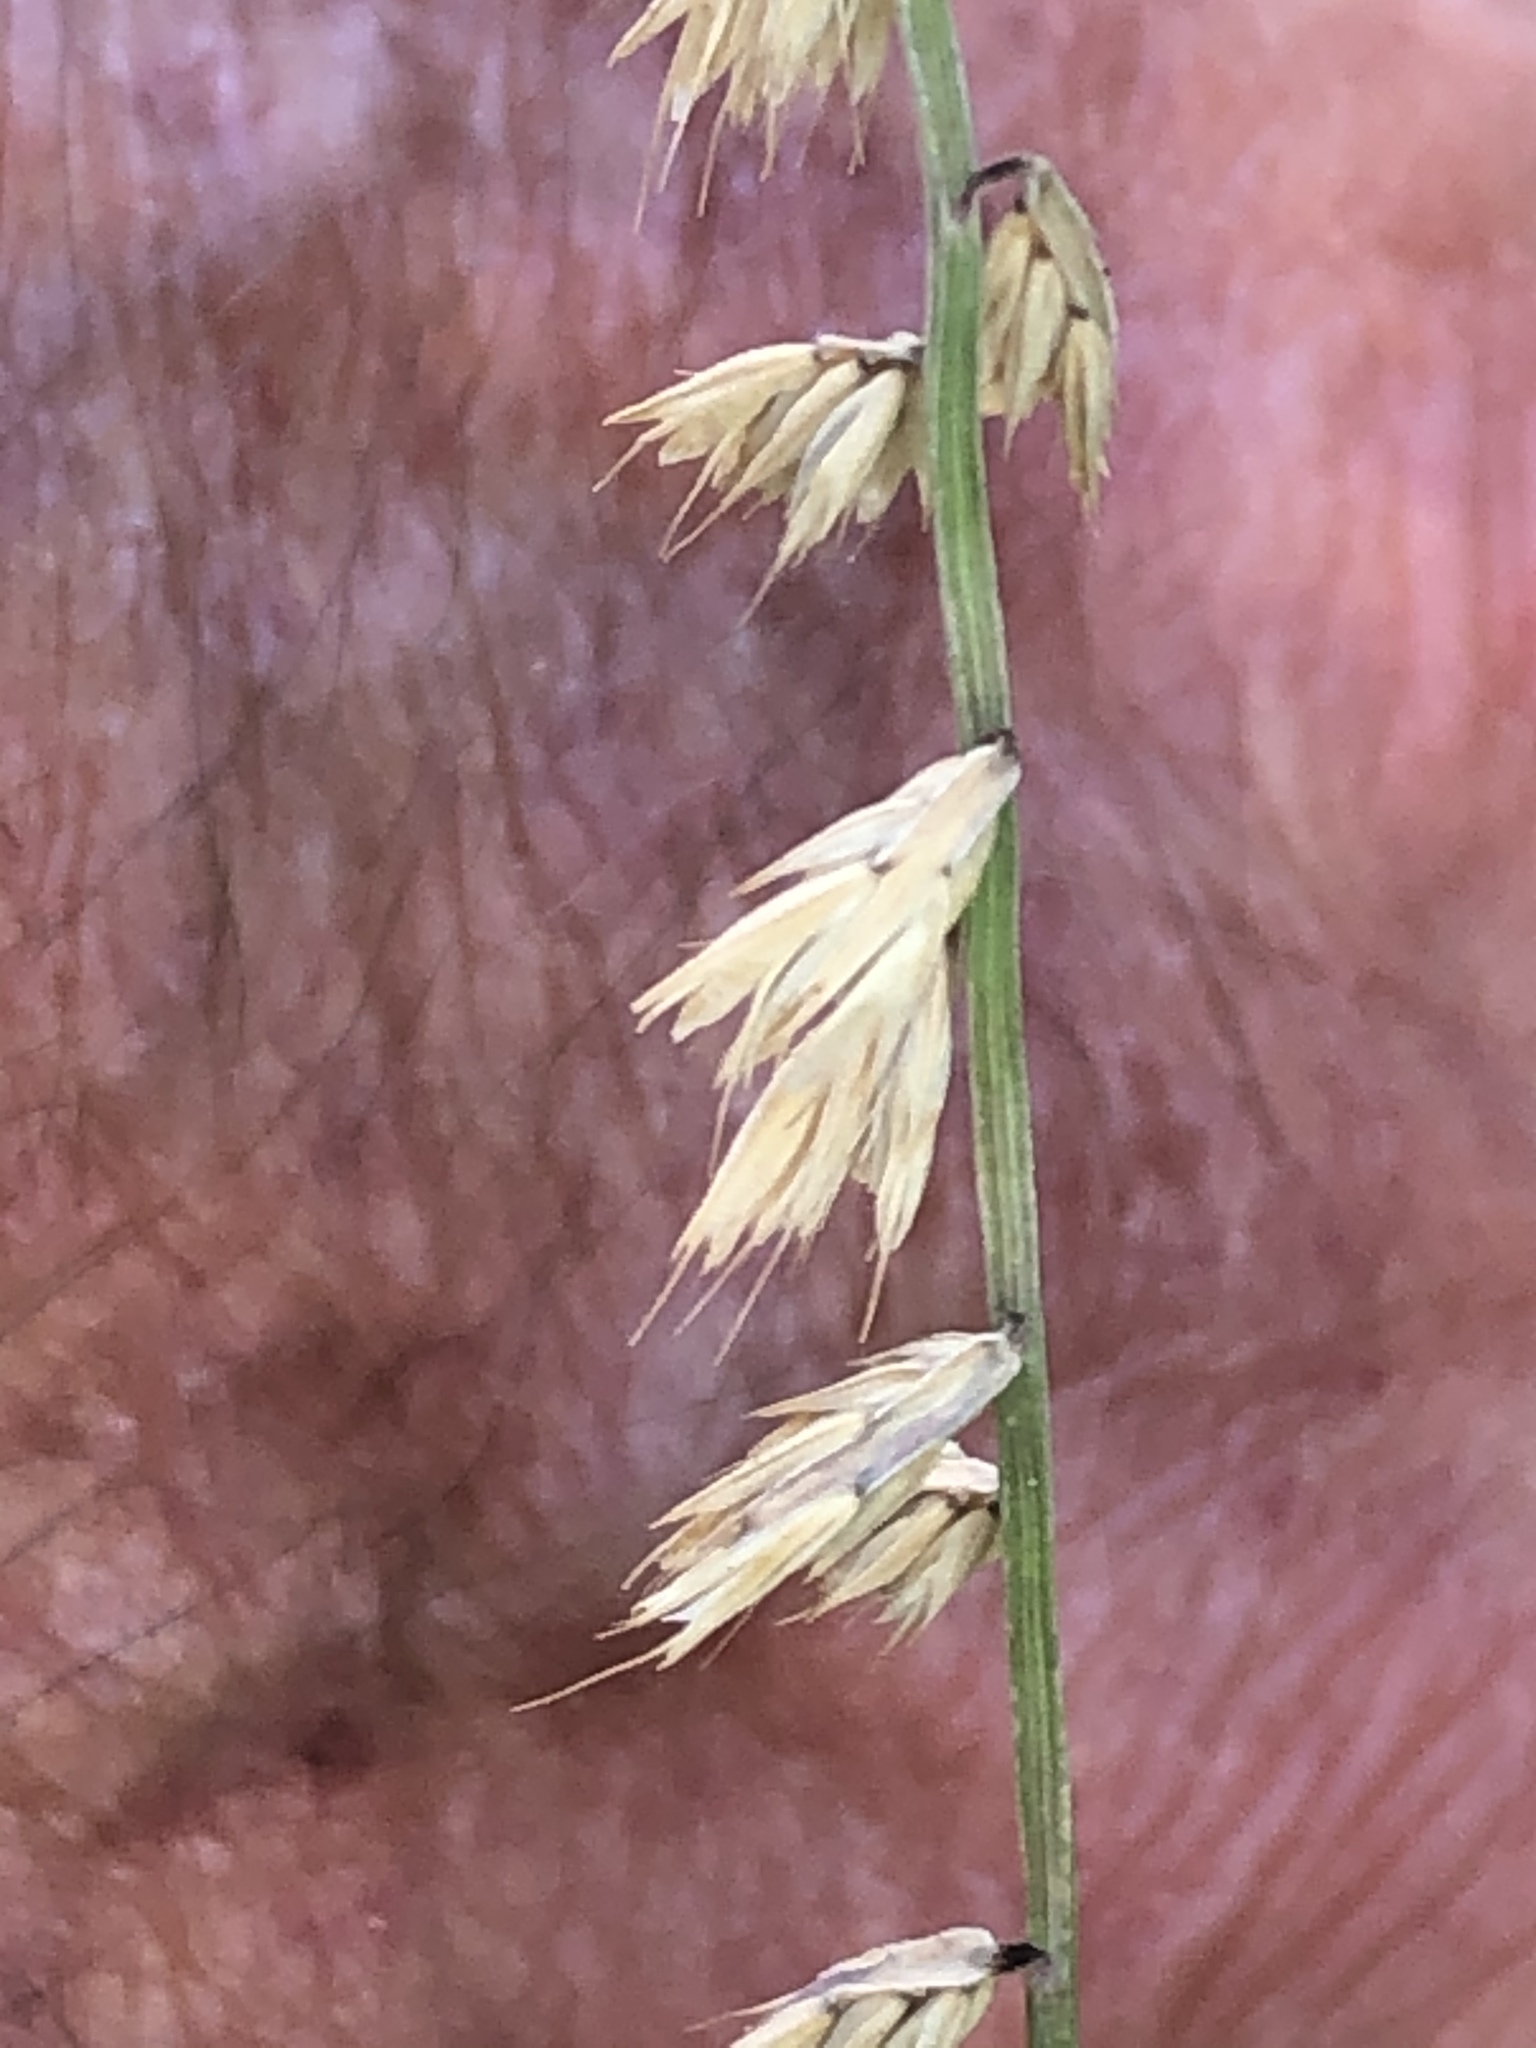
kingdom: Plantae
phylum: Tracheophyta
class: Liliopsida
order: Poales
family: Poaceae
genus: Bouteloua
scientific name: Bouteloua curtipendula
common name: Side-oats grama
